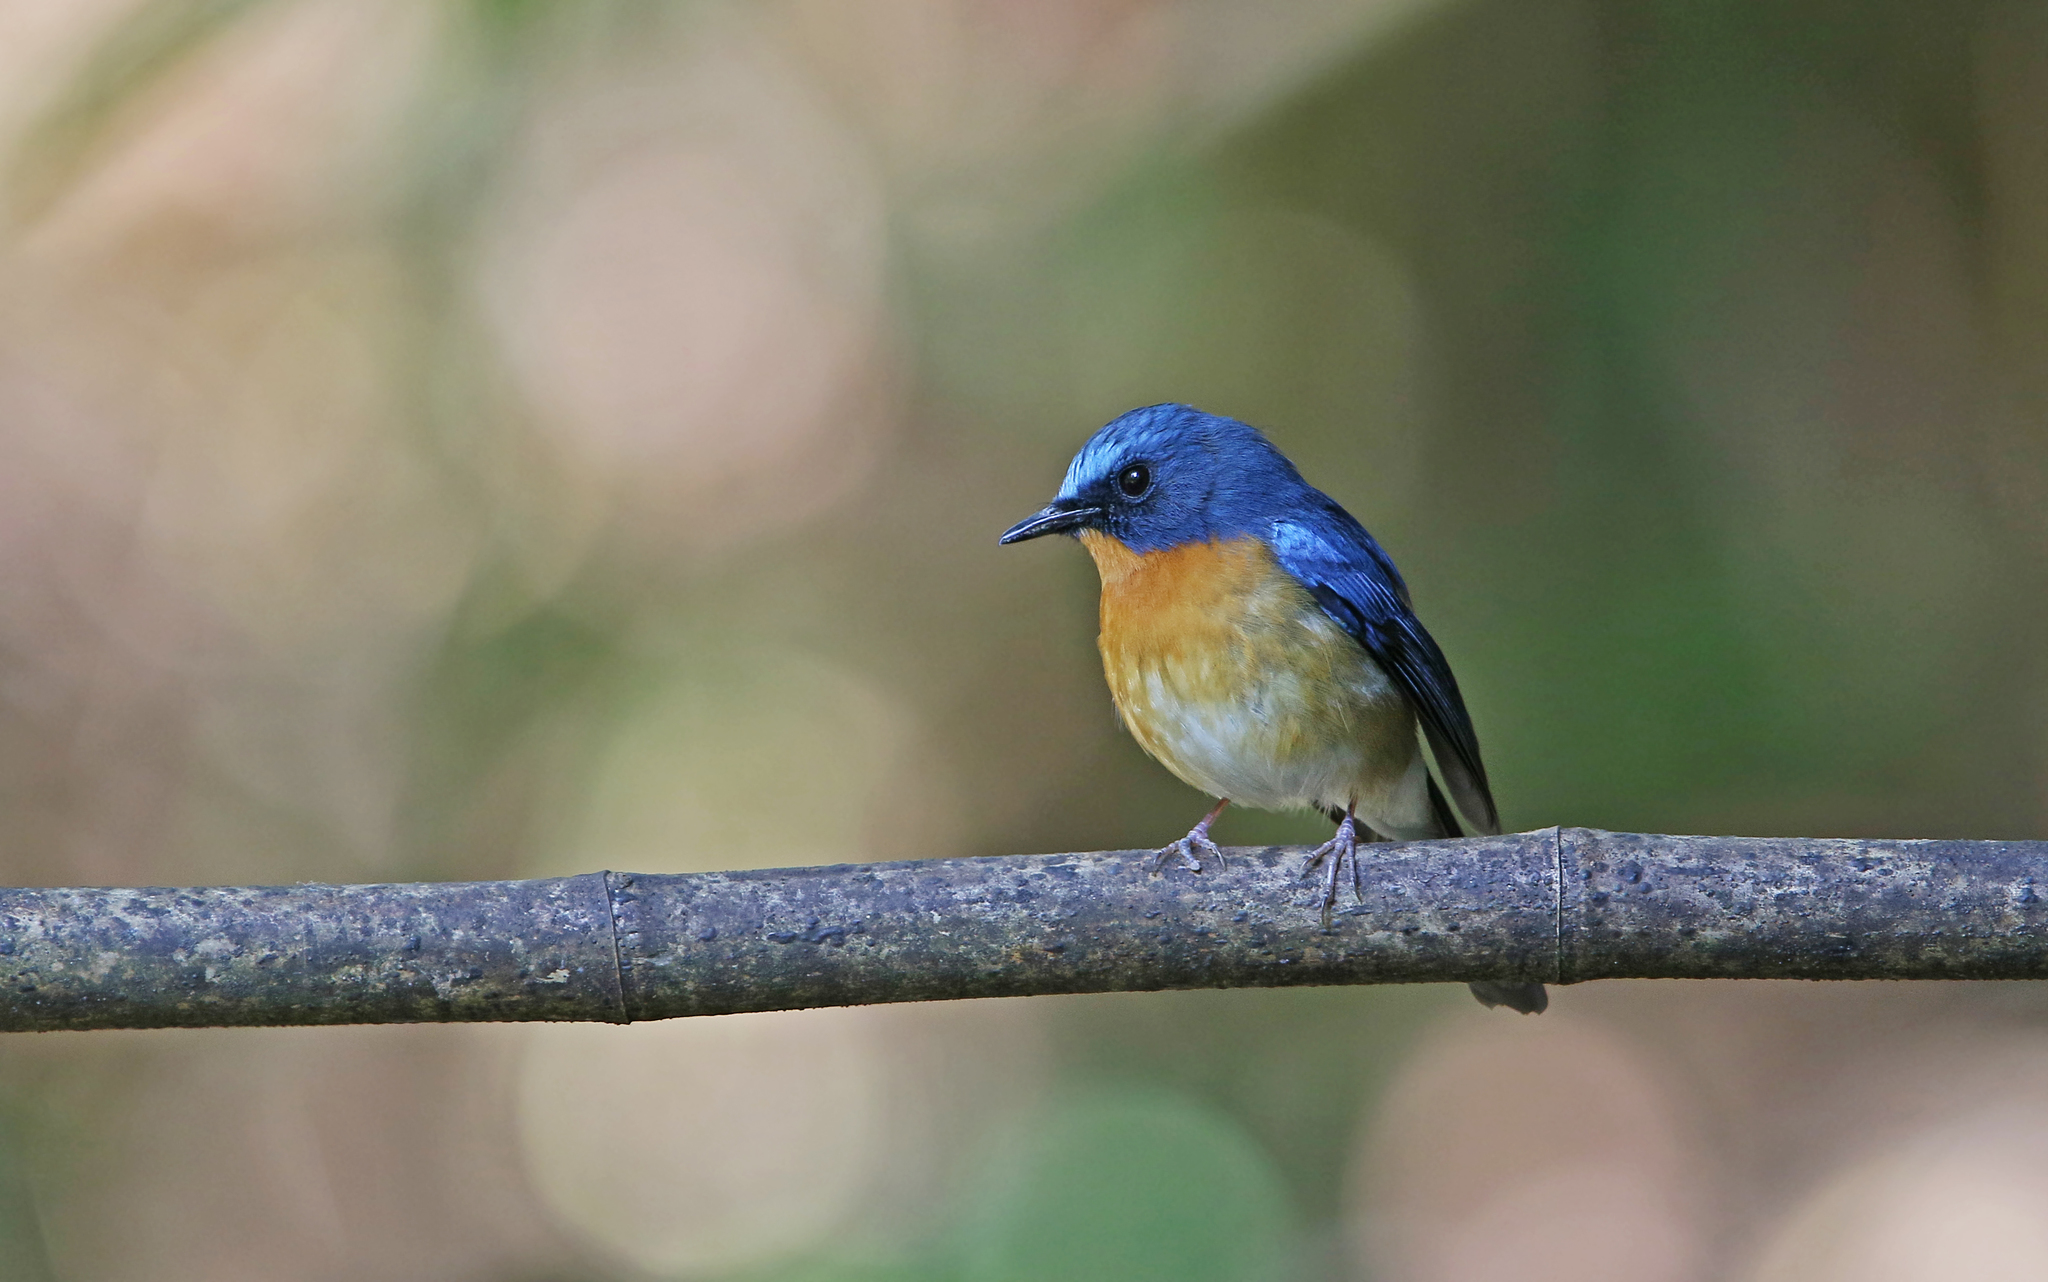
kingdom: Animalia
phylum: Chordata
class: Aves
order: Passeriformes
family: Muscicapidae
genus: Cyornis
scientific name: Cyornis whitei
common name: Hill blue flycatcher
